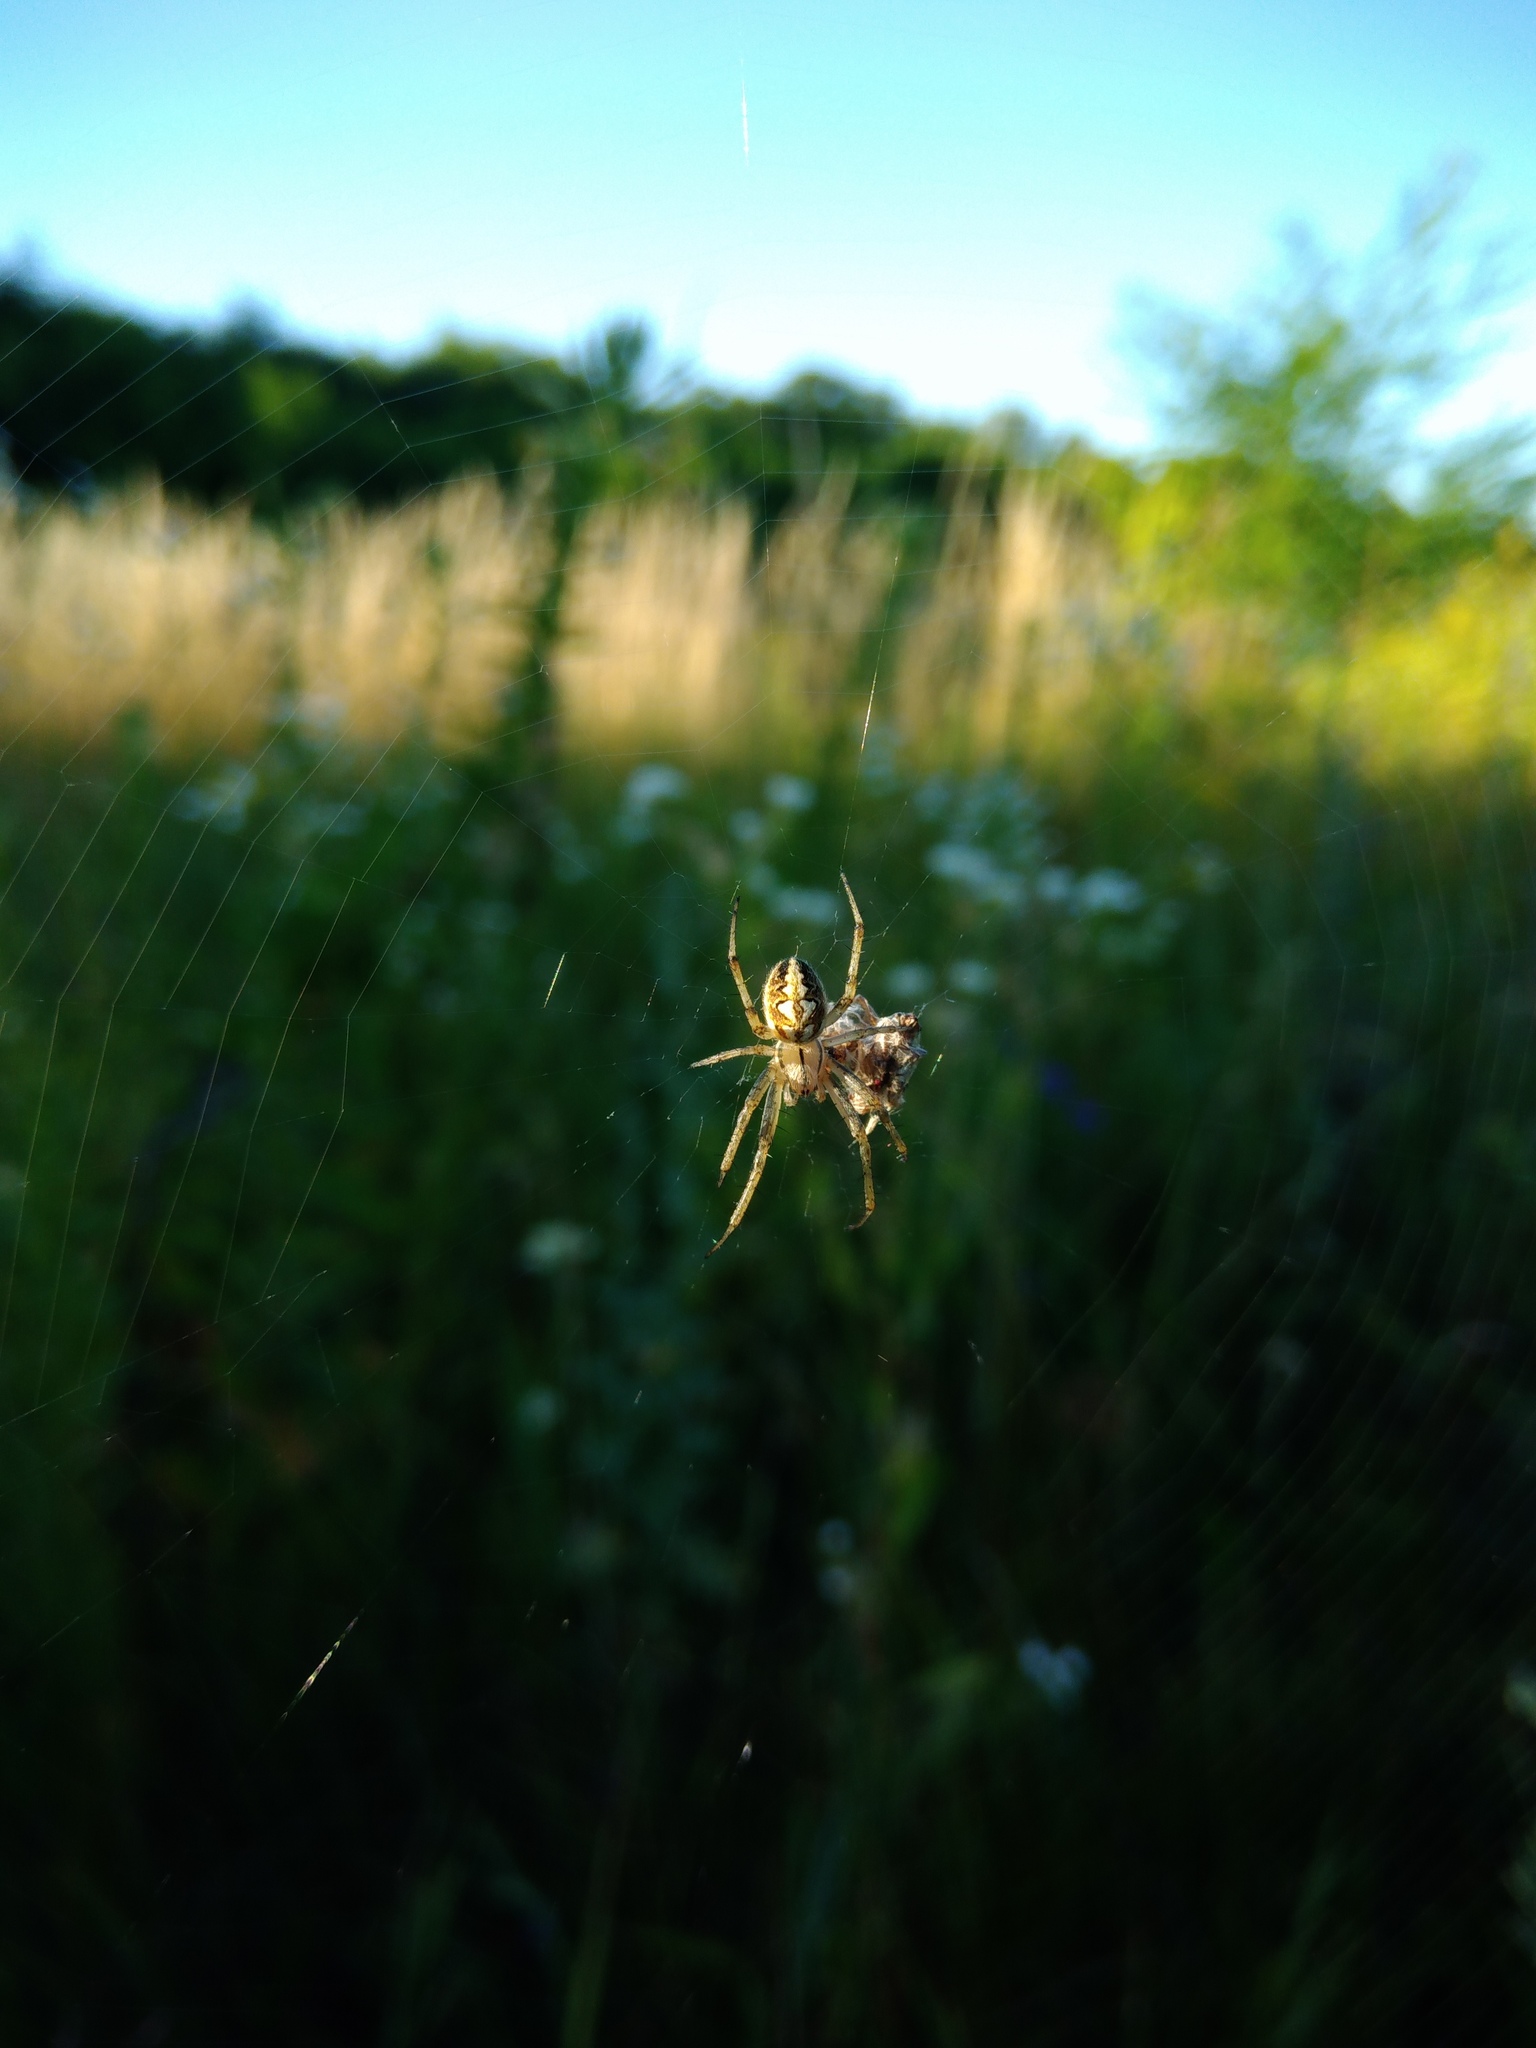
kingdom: Animalia
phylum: Arthropoda
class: Arachnida
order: Araneae
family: Araneidae
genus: Neoscona
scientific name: Neoscona adianta
